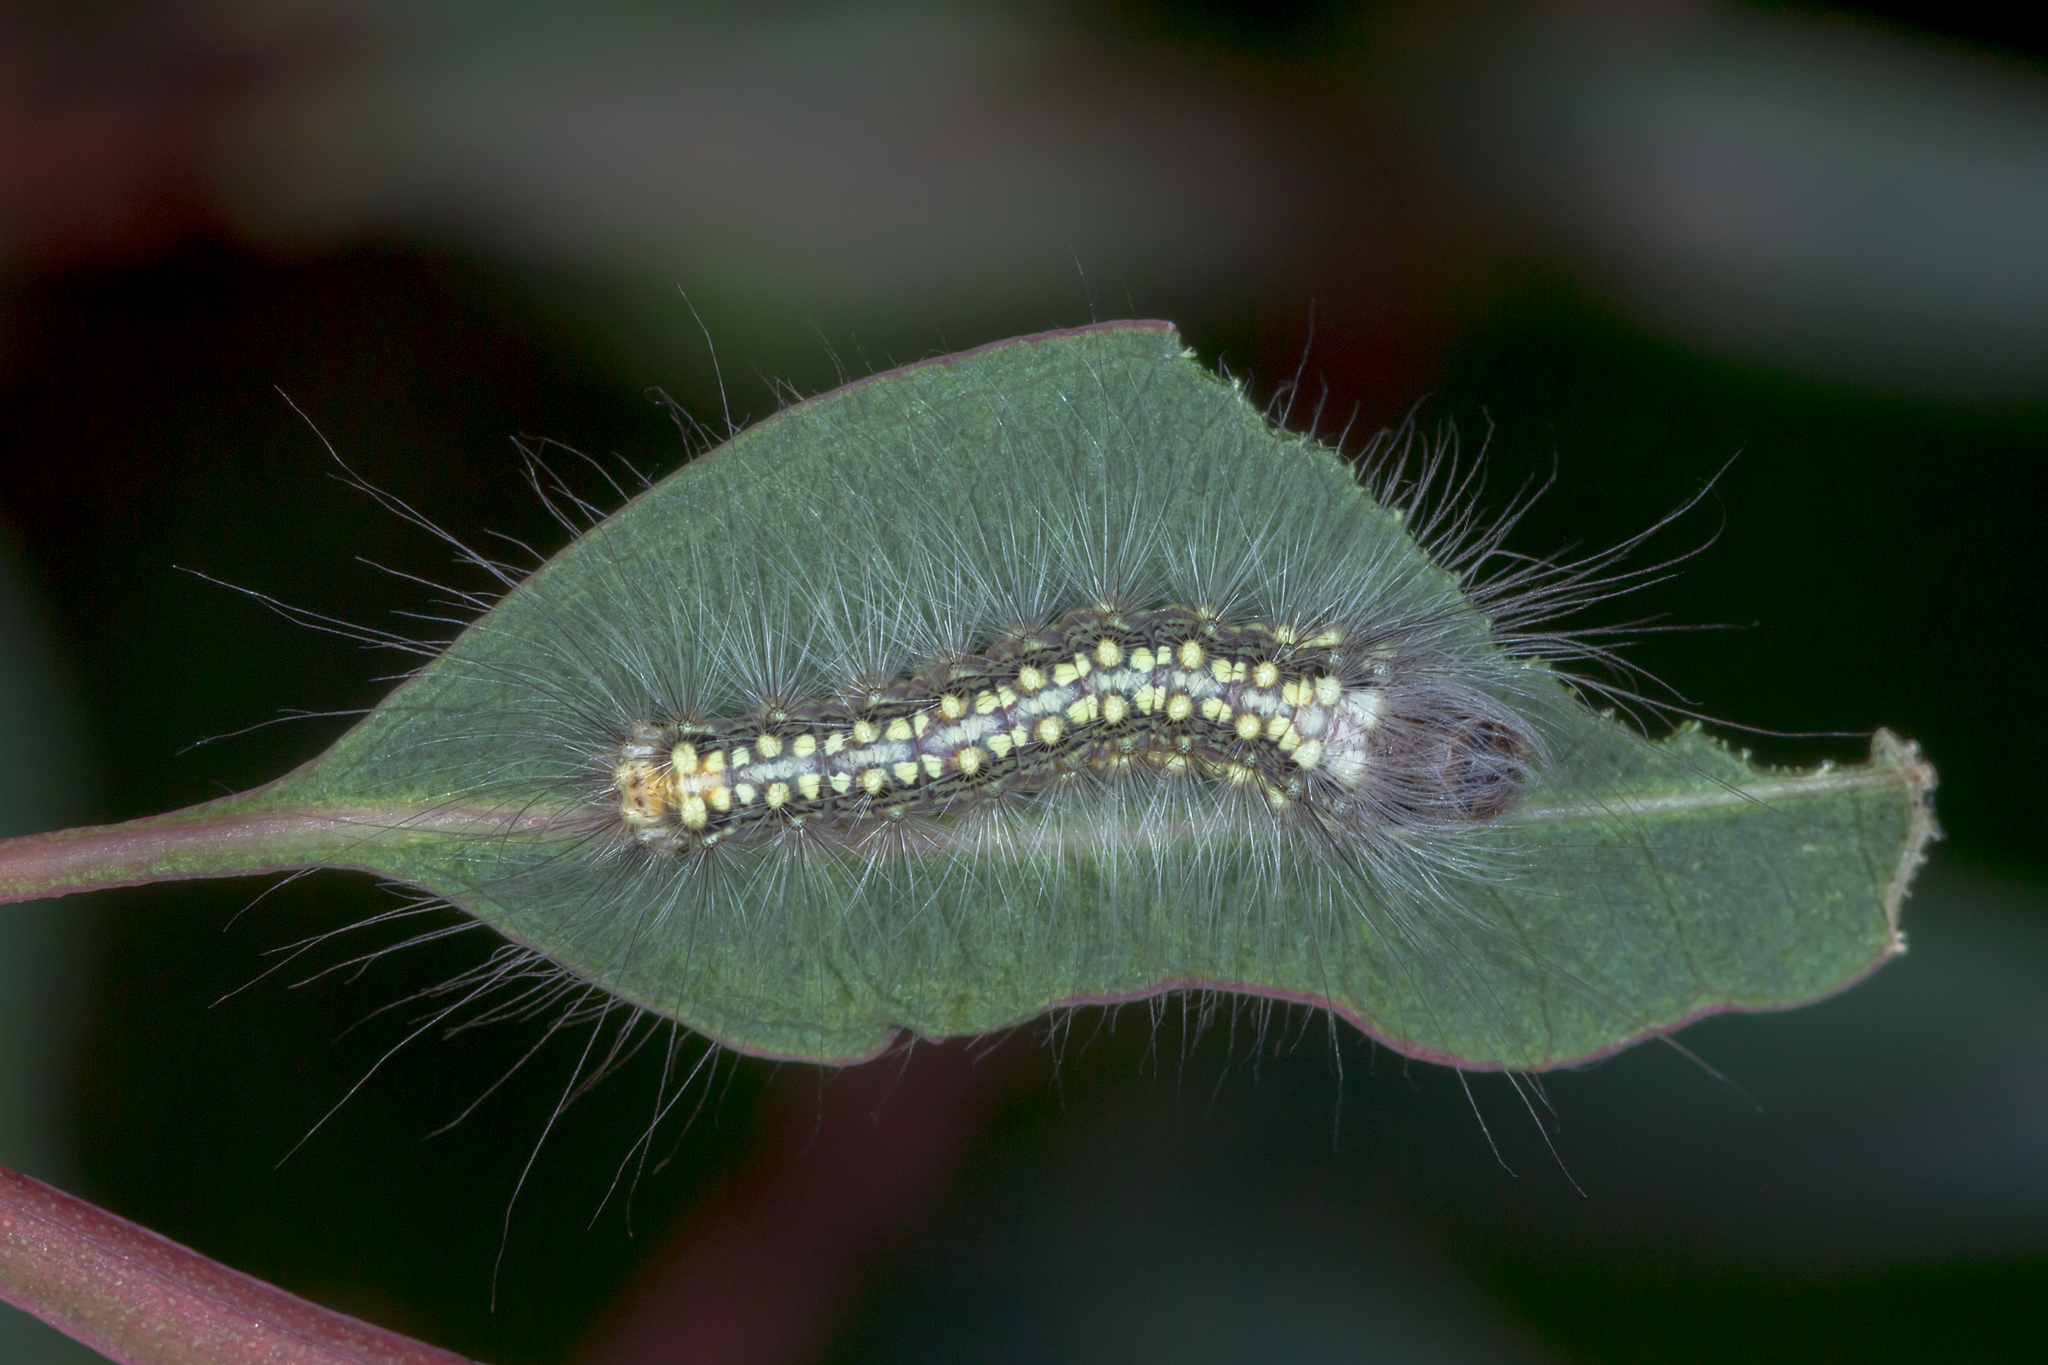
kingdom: Animalia
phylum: Arthropoda
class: Insecta
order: Lepidoptera
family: Nolidae
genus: Uraba
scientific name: Uraba lugens
